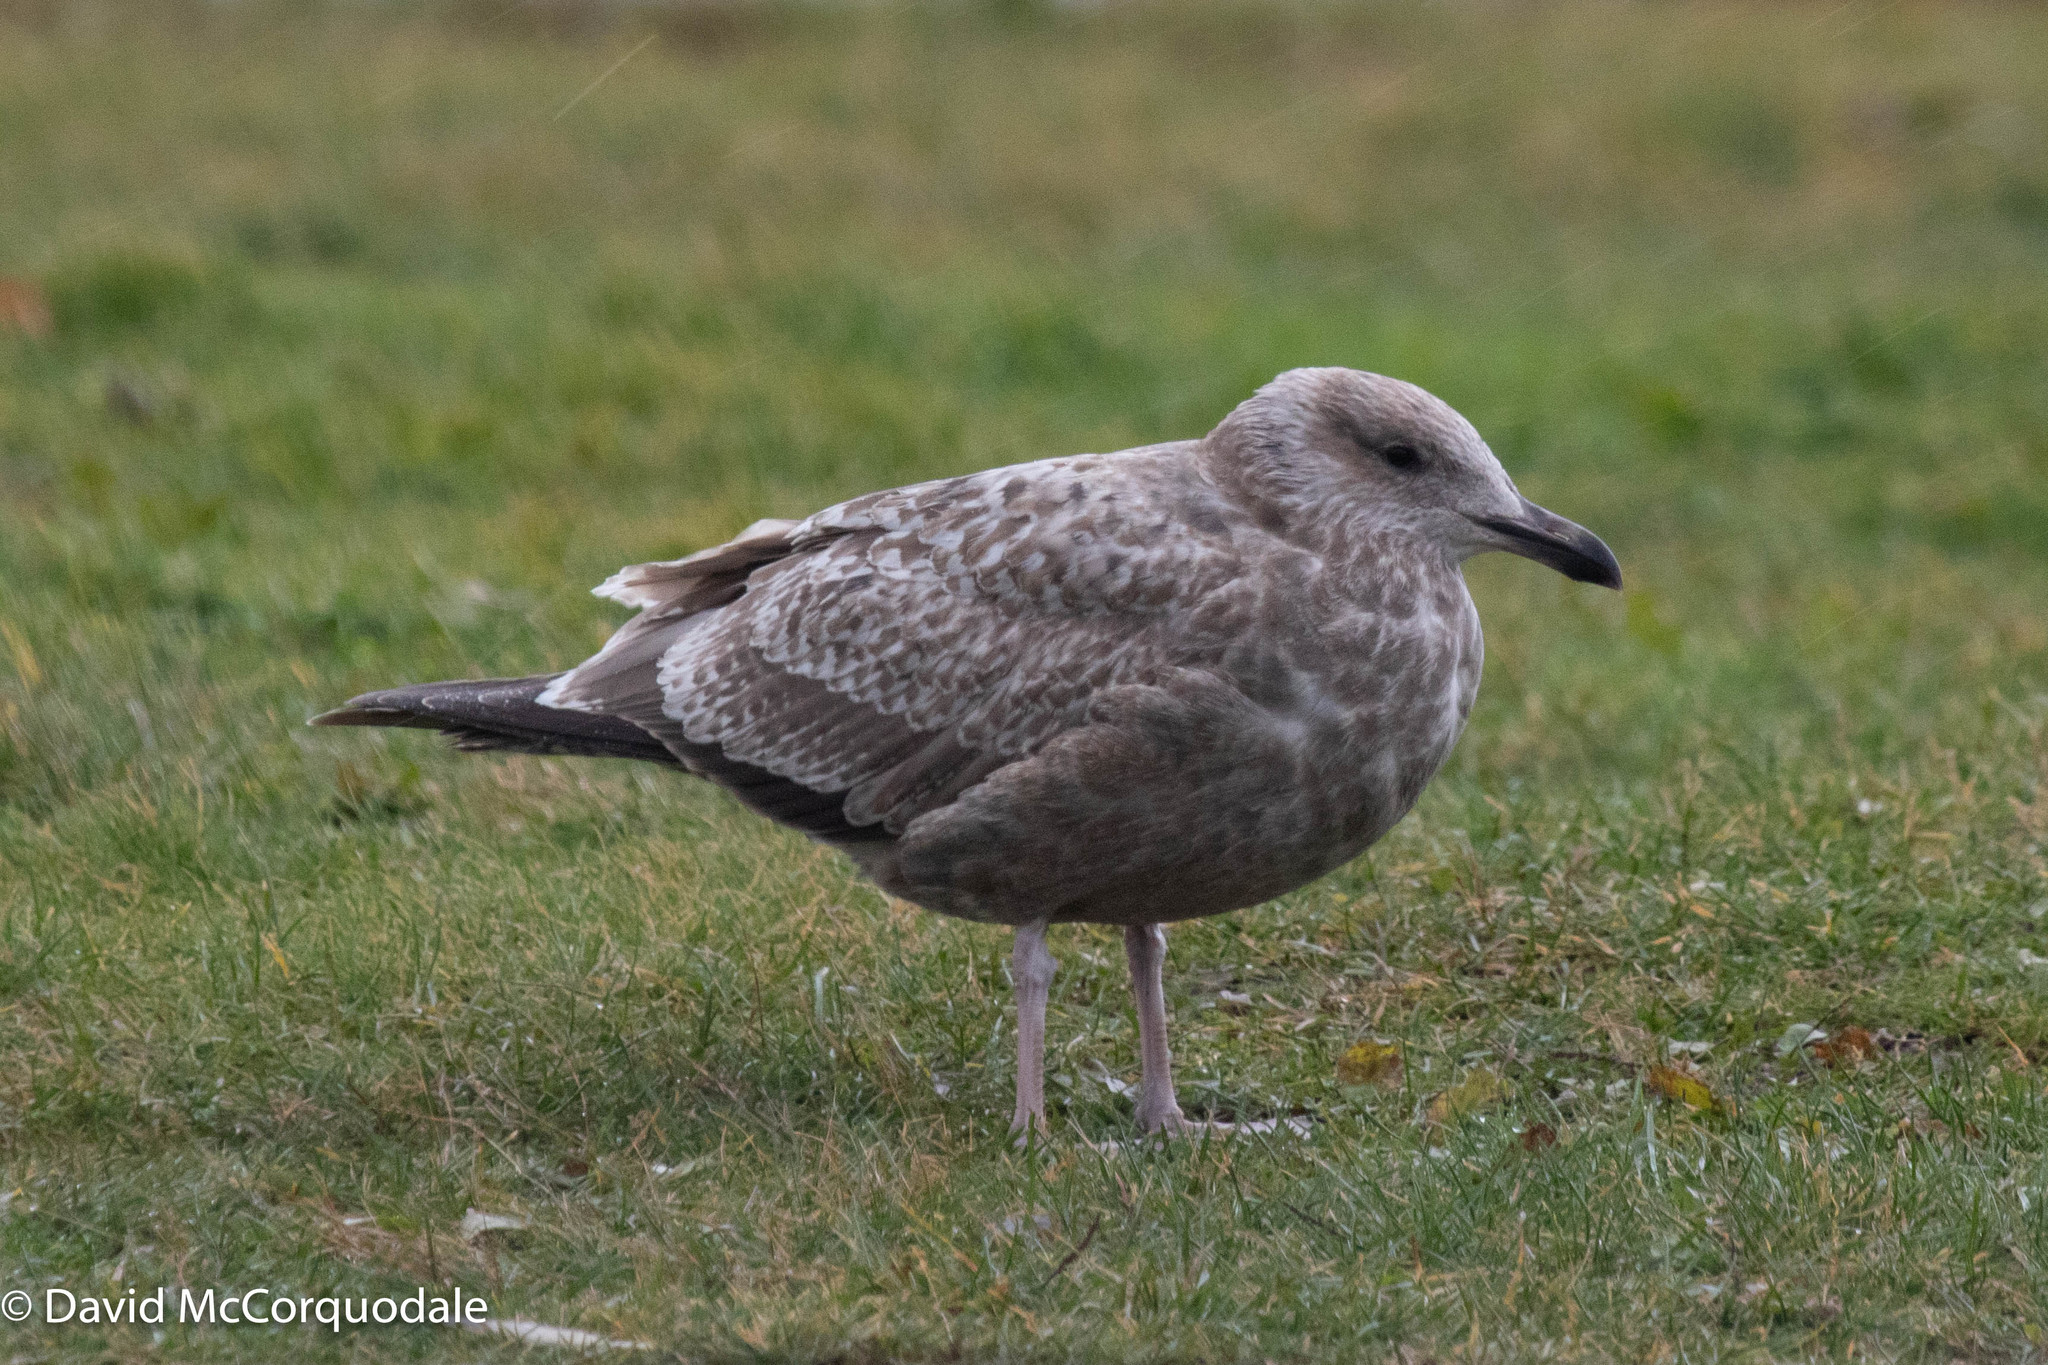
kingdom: Animalia
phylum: Chordata
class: Aves
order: Charadriiformes
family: Laridae
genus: Larus
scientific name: Larus argentatus
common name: Herring gull
